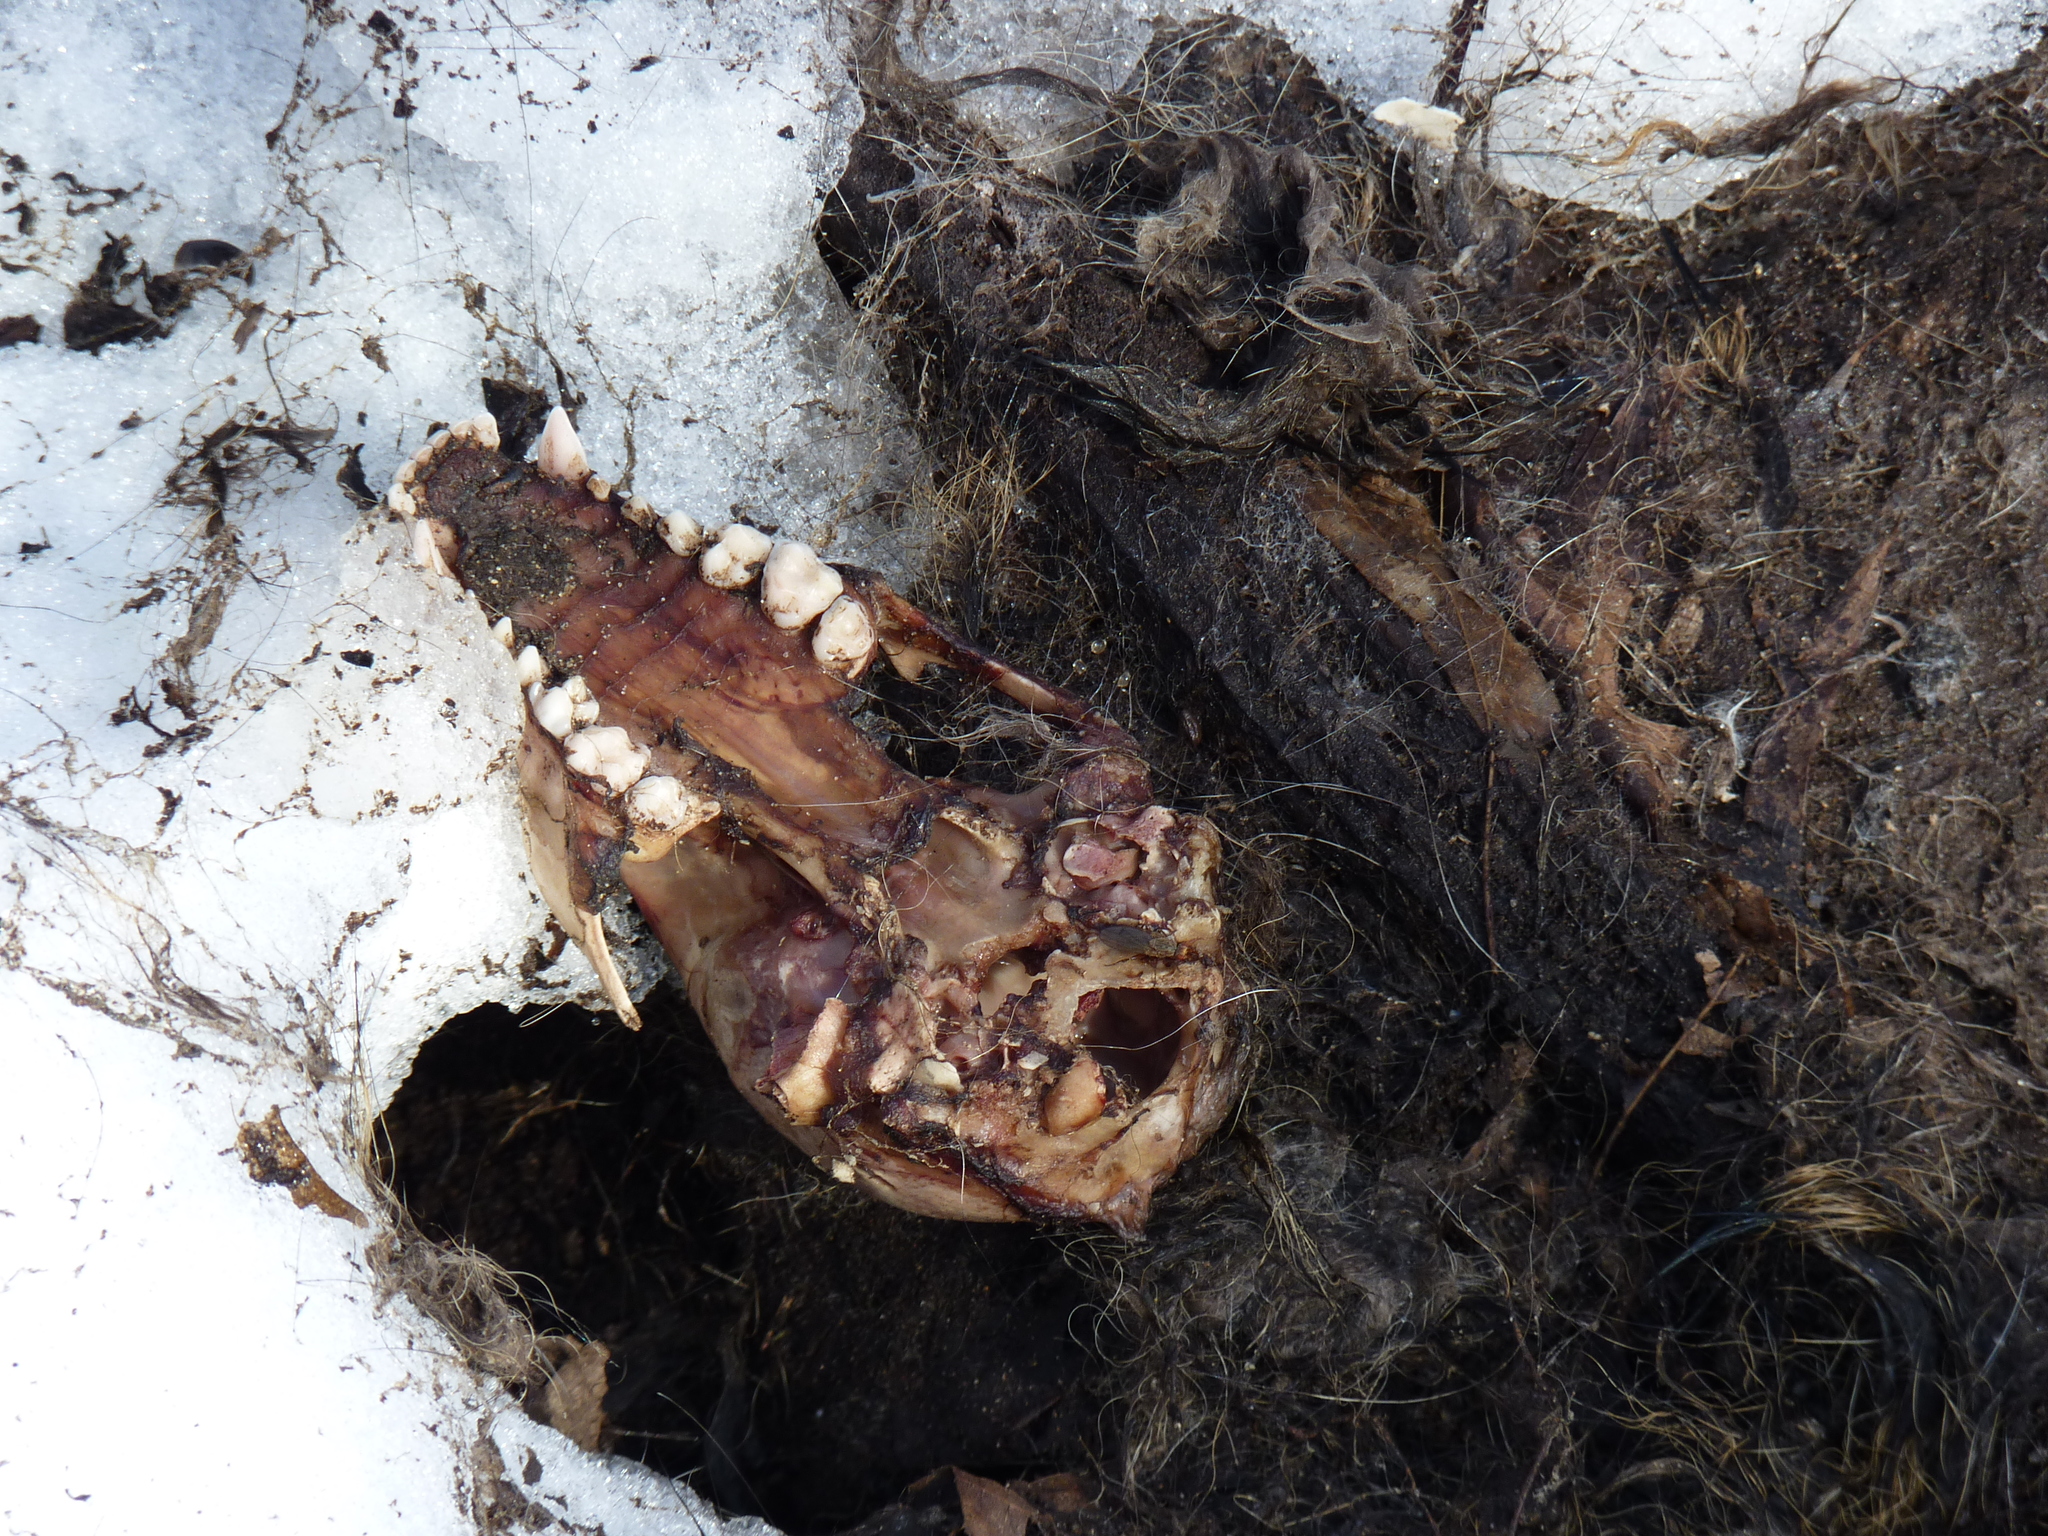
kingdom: Animalia
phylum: Chordata
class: Mammalia
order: Carnivora
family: Procyonidae
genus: Procyon
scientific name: Procyon lotor
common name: Raccoon
